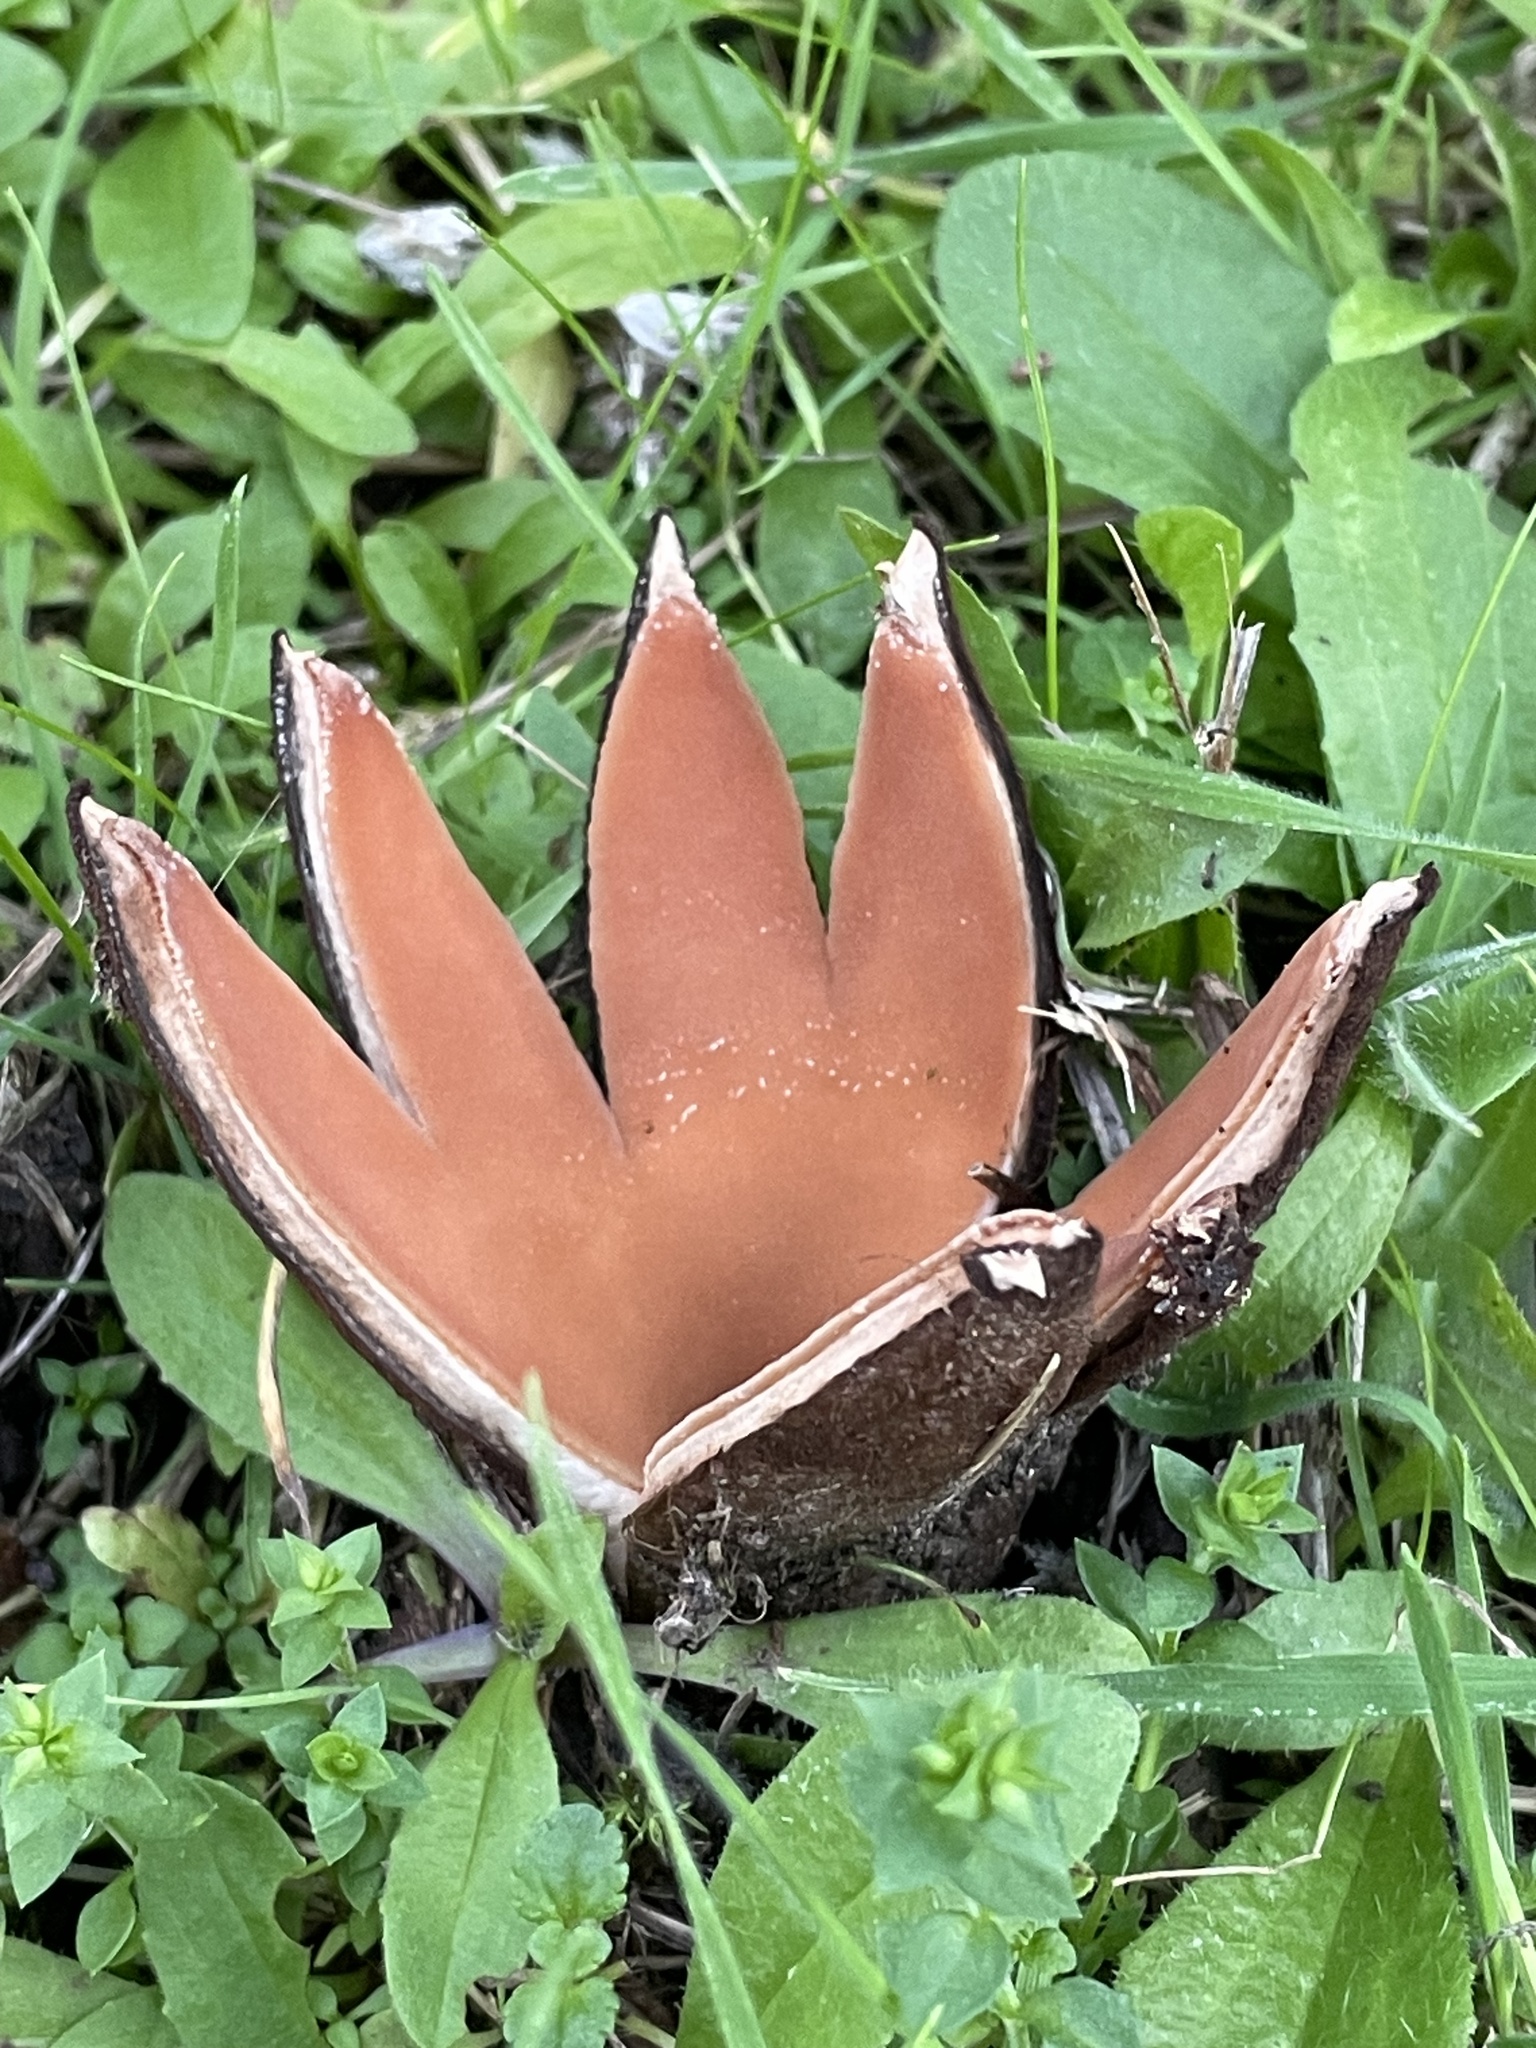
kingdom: Fungi
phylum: Ascomycota
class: Pezizomycetes
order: Pezizales
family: Chorioactidaceae
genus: Chorioactis
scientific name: Chorioactis geaster
